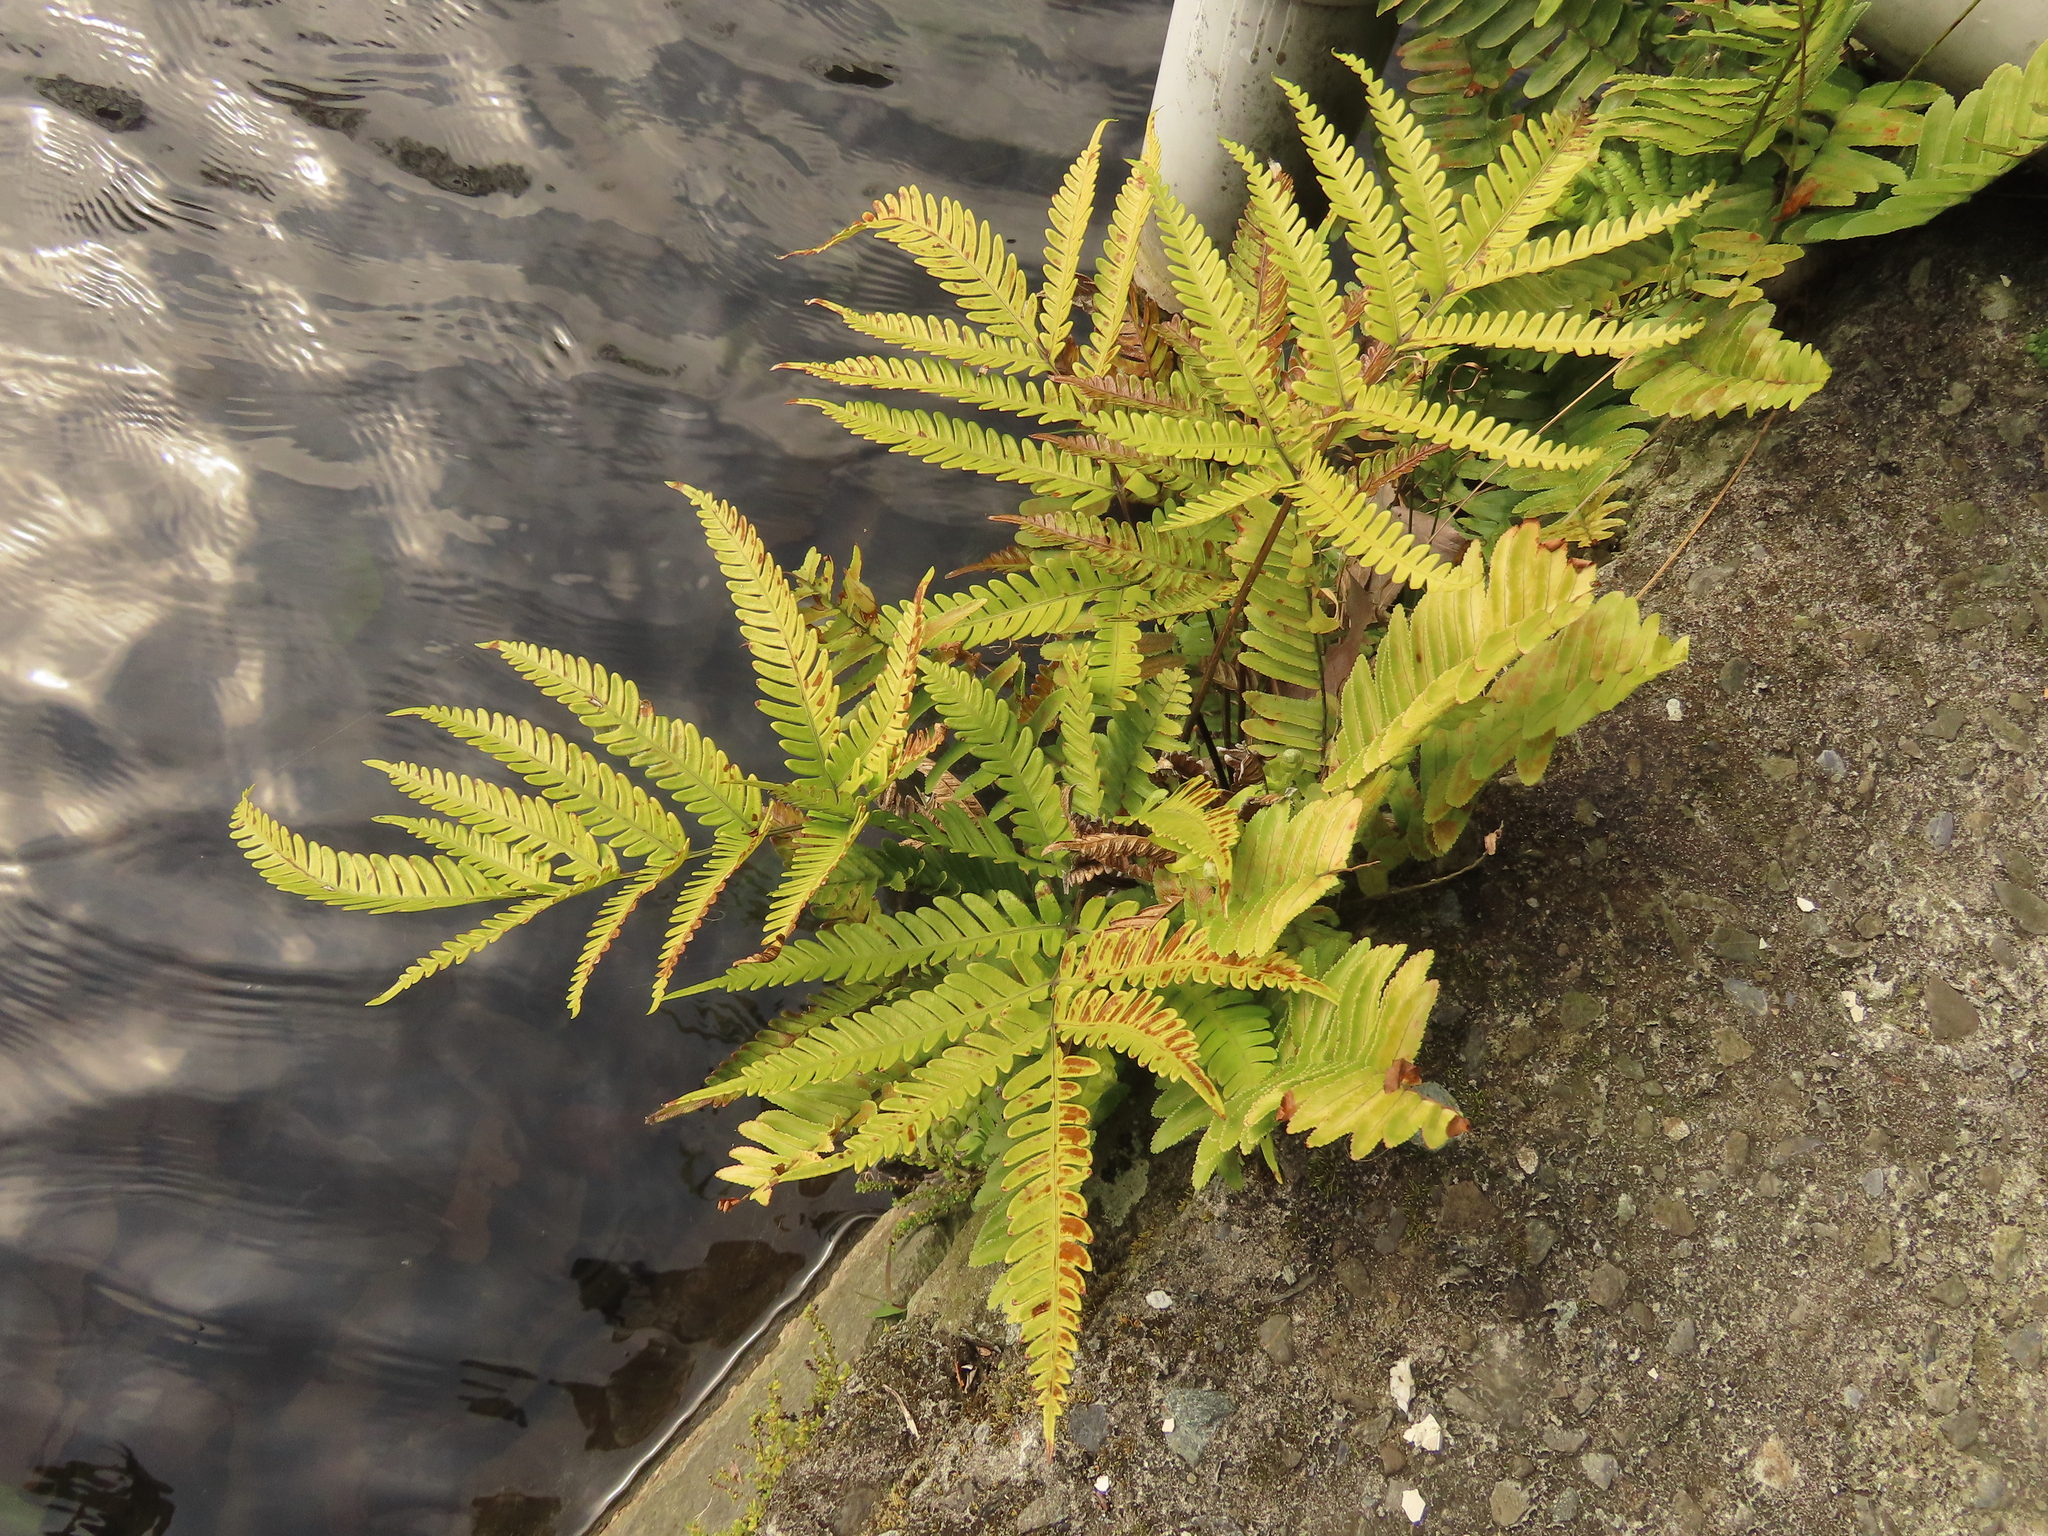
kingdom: Plantae
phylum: Tracheophyta
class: Polypodiopsida
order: Polypodiales
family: Pteridaceae
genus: Pteris
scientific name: Pteris fauriei
